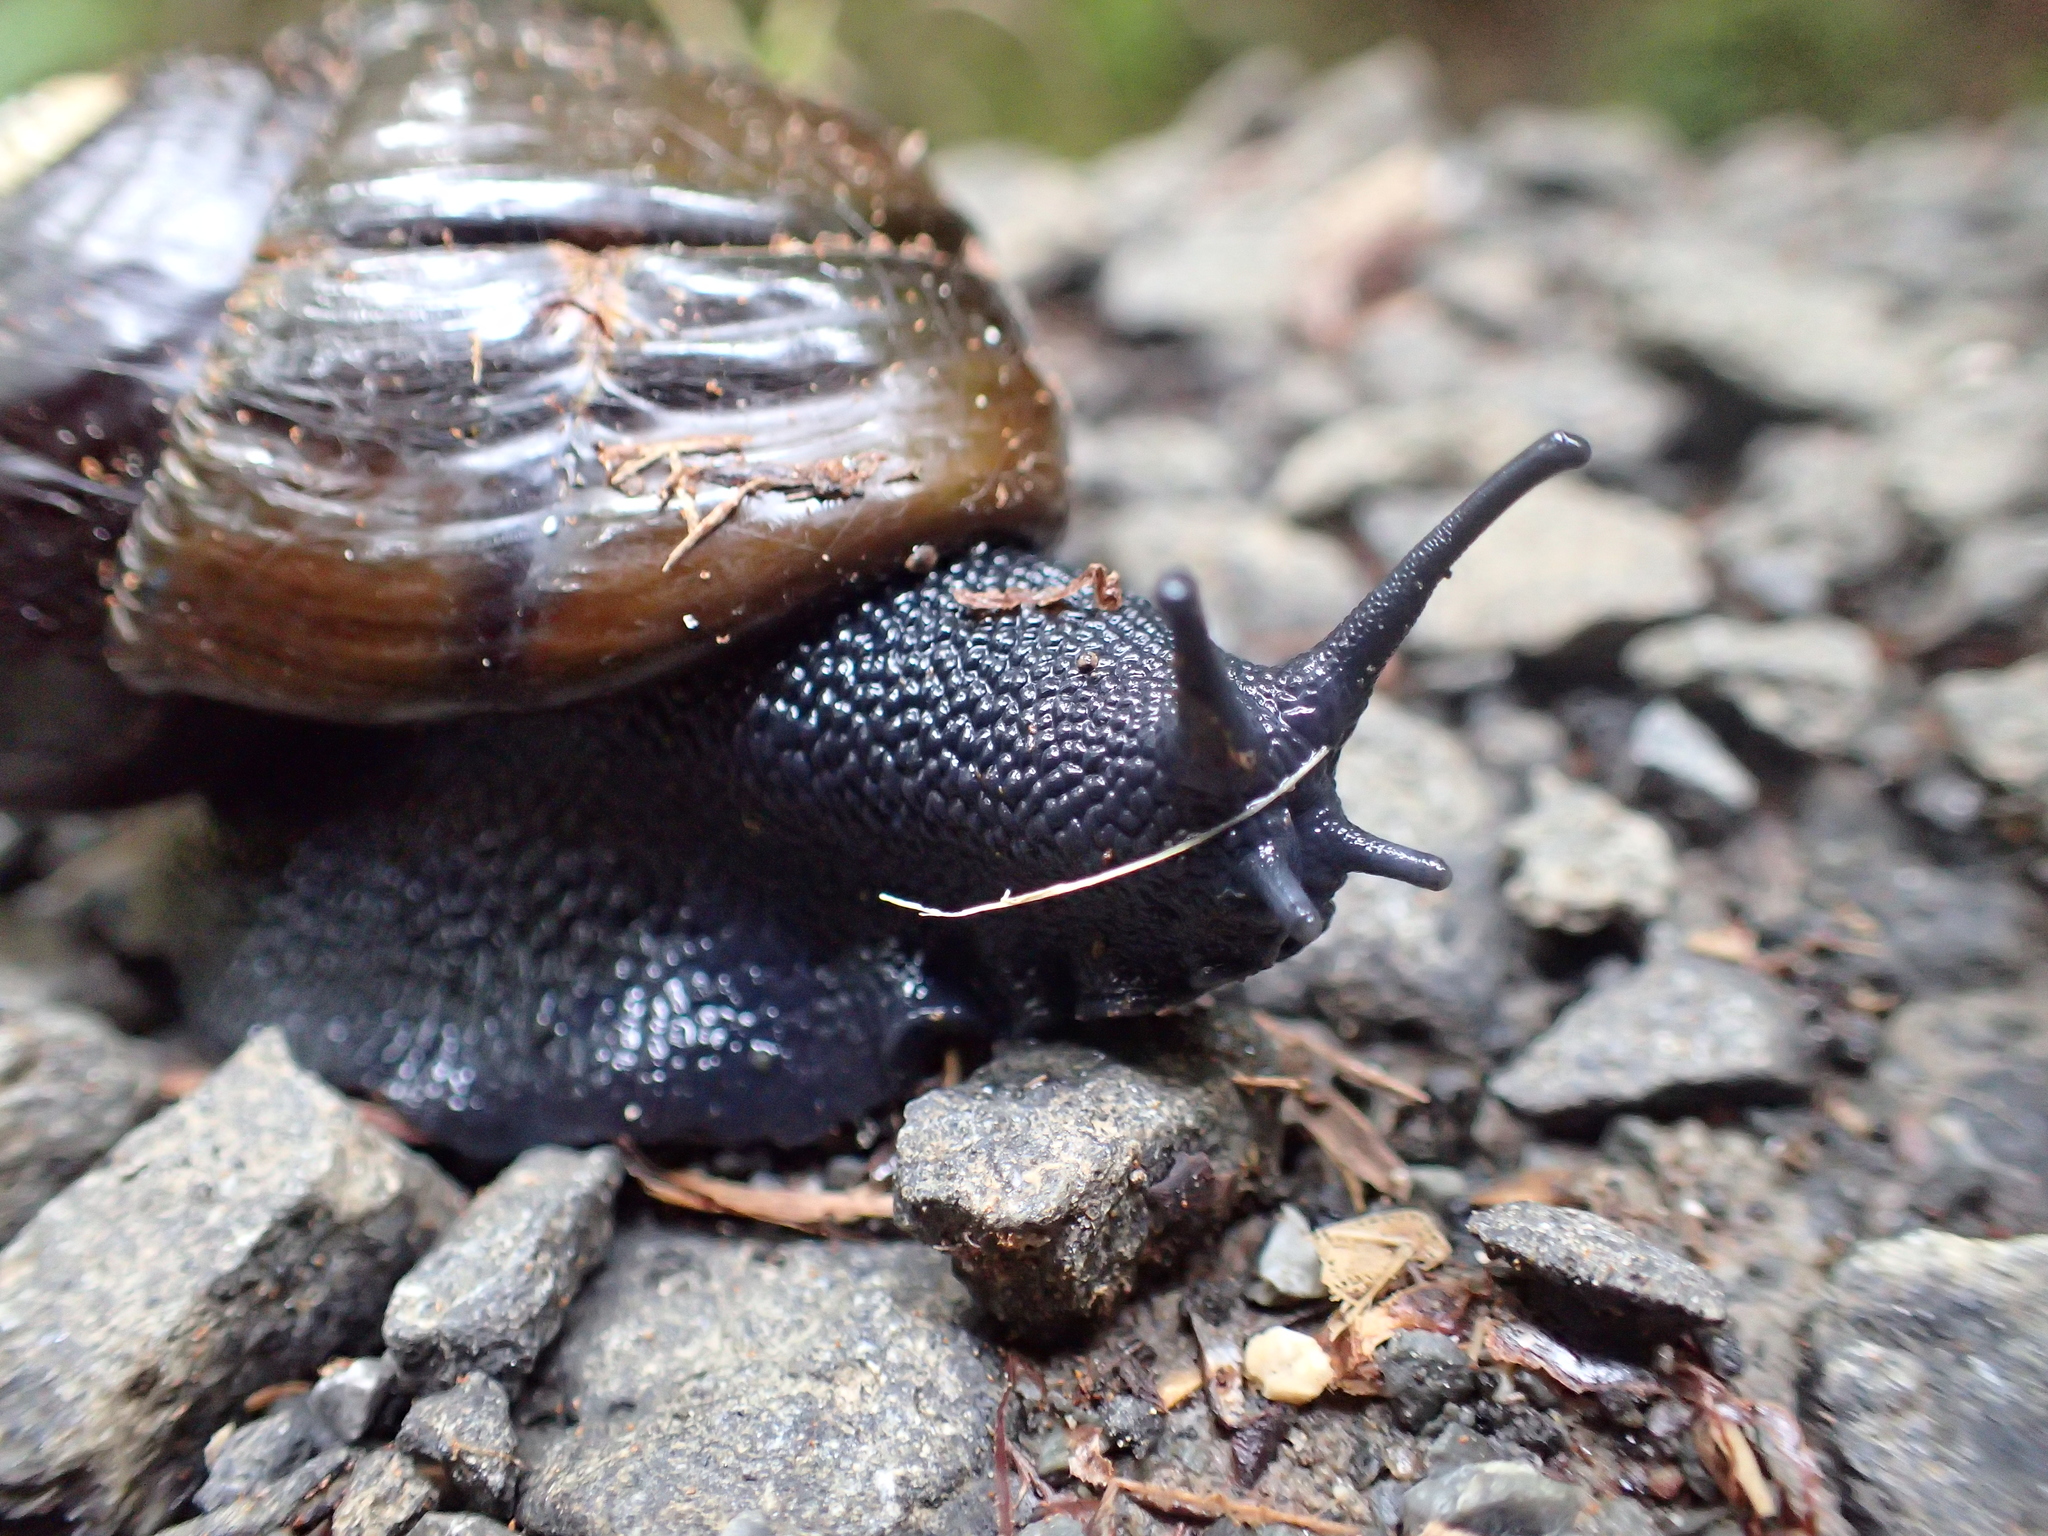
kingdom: Animalia
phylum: Mollusca
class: Gastropoda
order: Stylommatophora
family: Rhytididae
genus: Paryphanta
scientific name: Paryphanta busbyi
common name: Kauri snail
